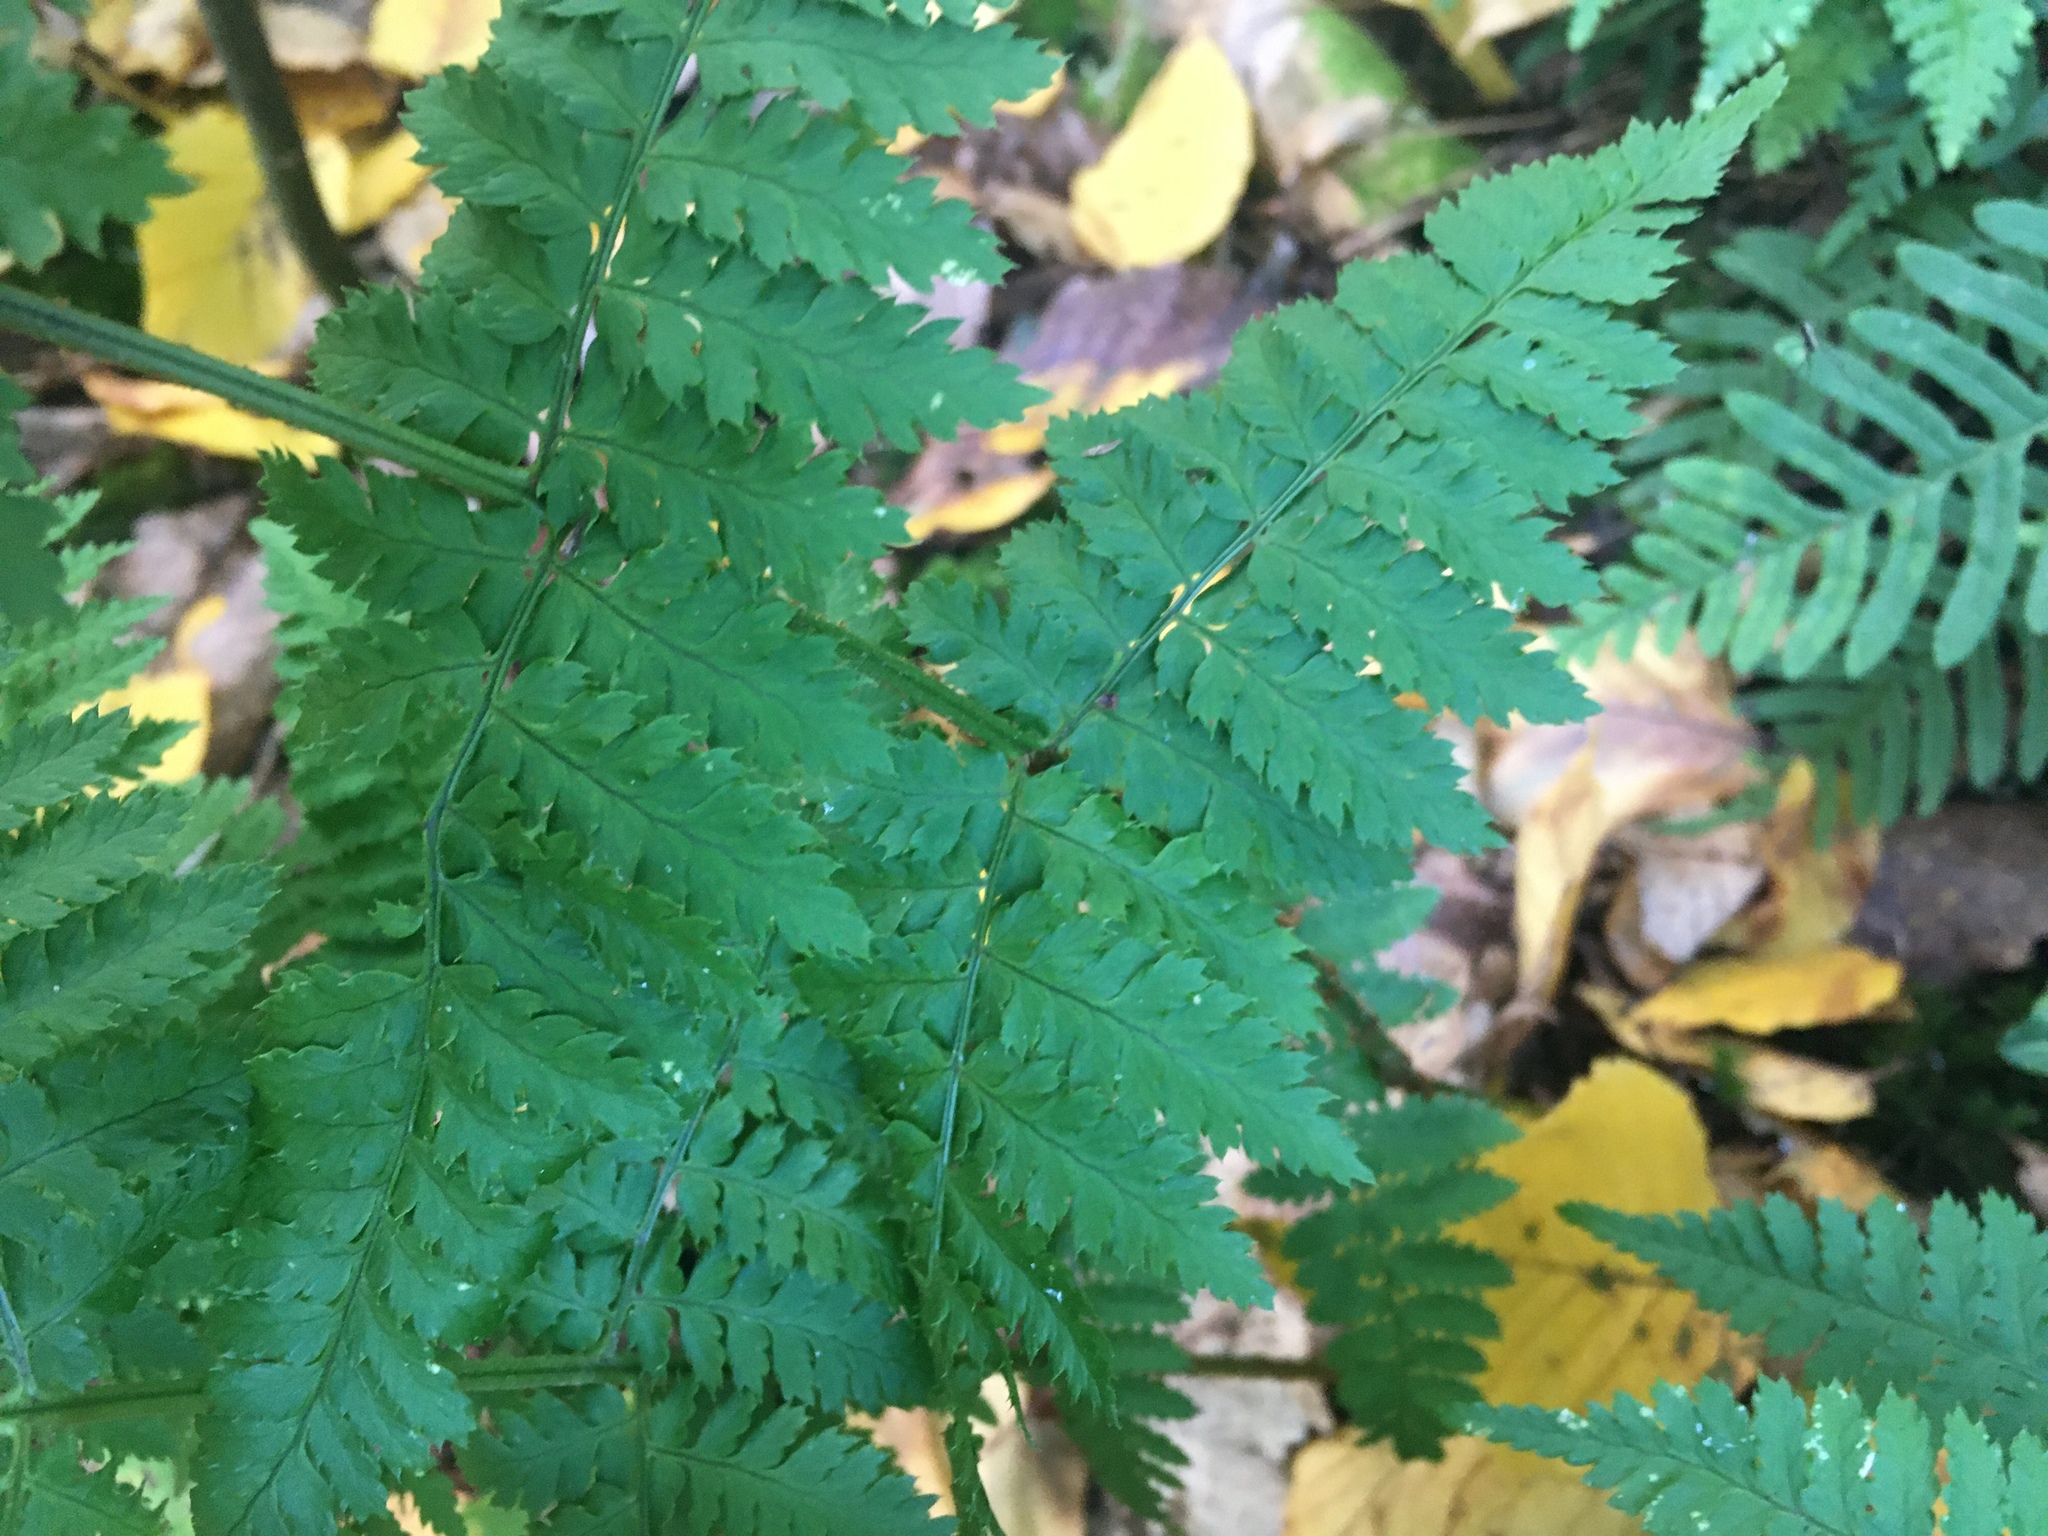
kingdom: Plantae
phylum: Tracheophyta
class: Polypodiopsida
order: Polypodiales
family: Dryopteridaceae
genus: Dryopteris
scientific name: Dryopteris intermedia
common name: Evergreen wood fern
